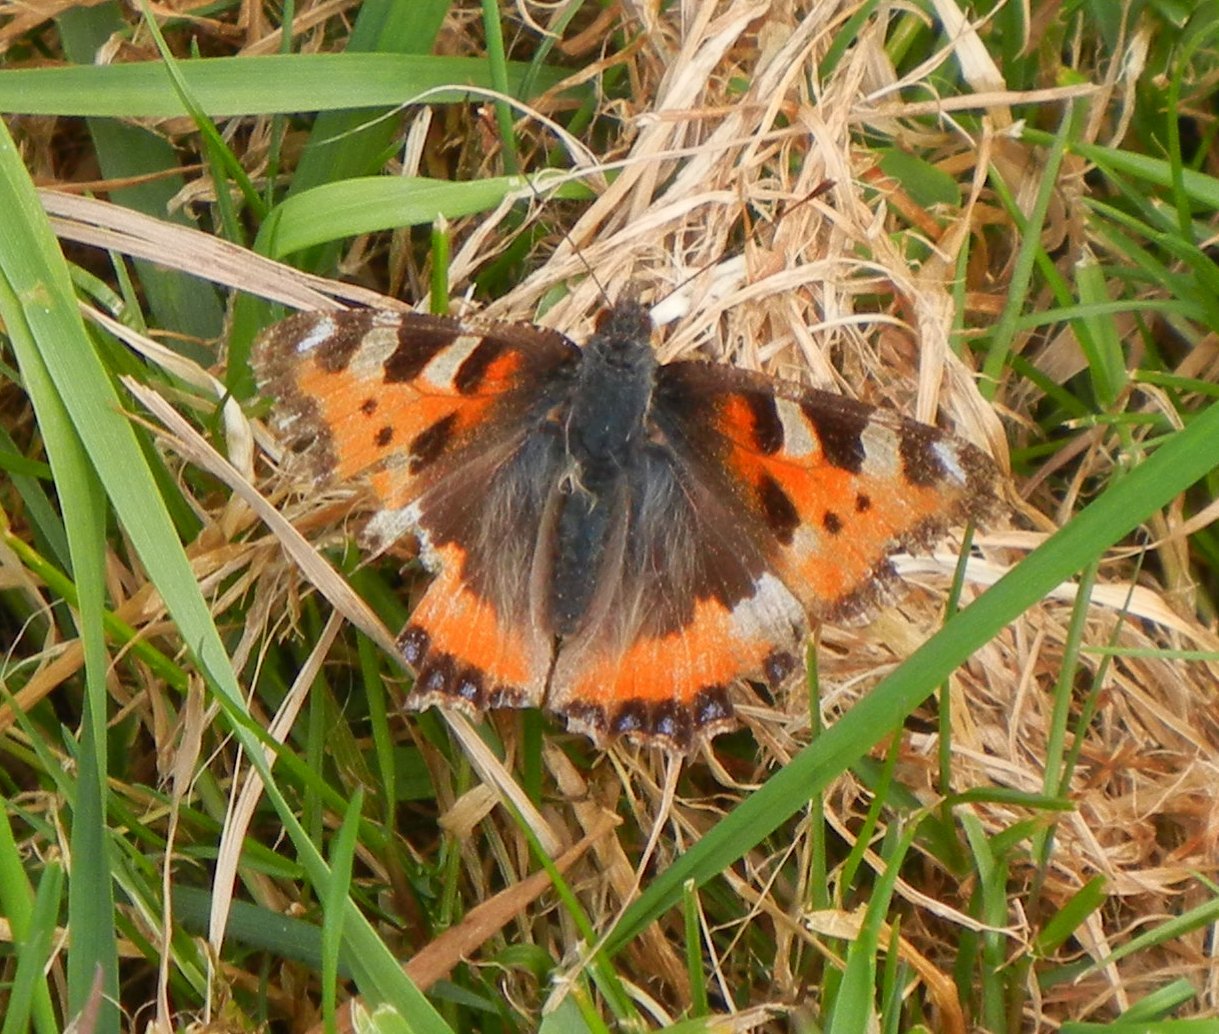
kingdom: Animalia
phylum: Arthropoda
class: Insecta
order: Lepidoptera
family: Nymphalidae
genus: Aglais
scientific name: Aglais urticae
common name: Small tortoiseshell
